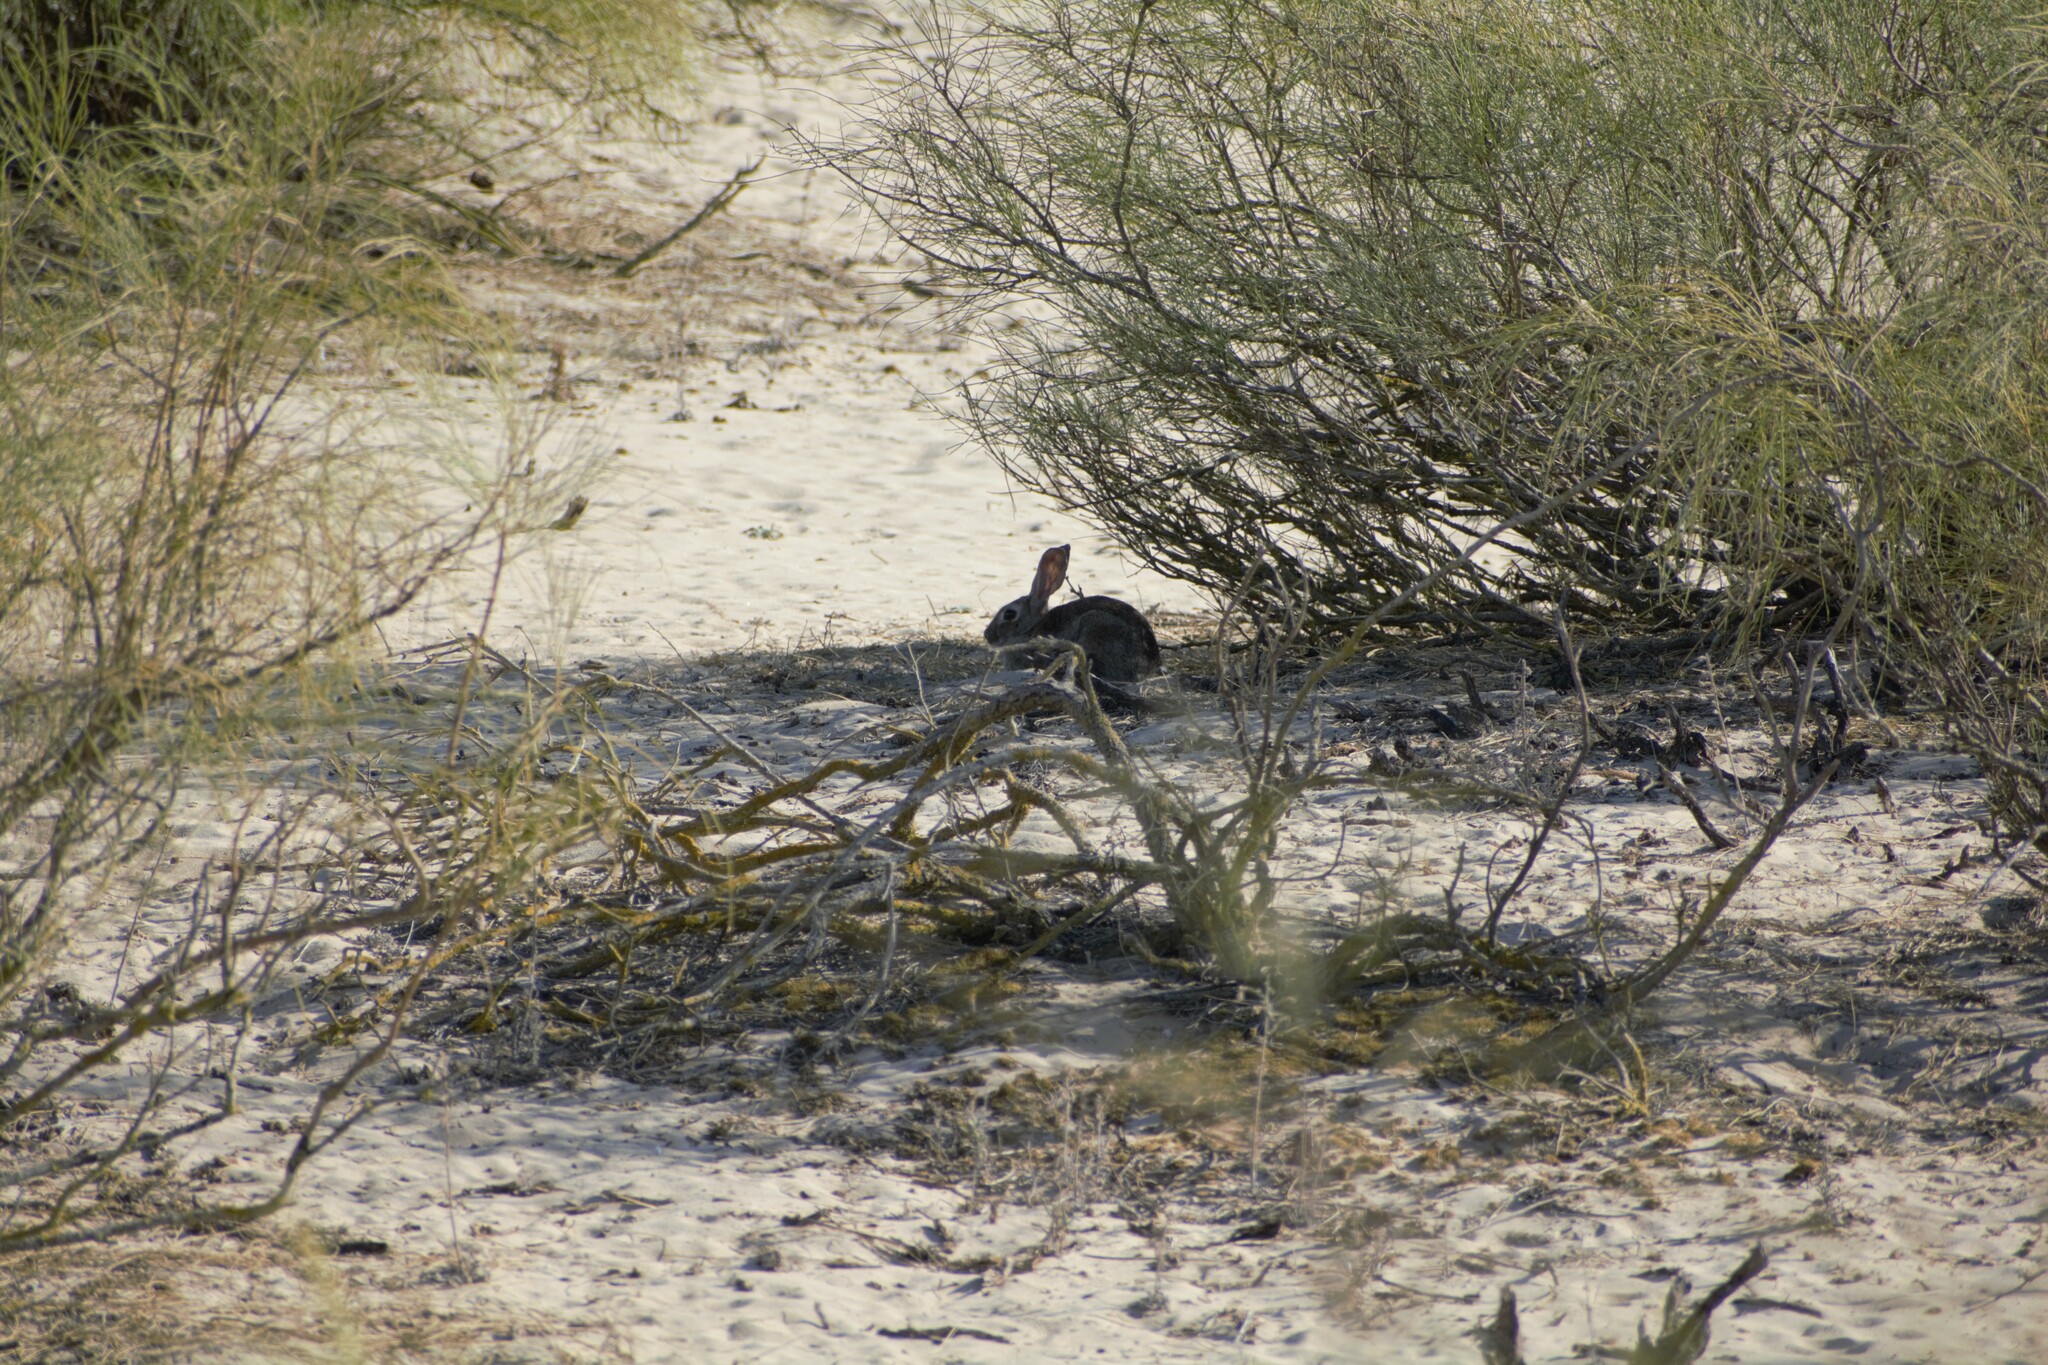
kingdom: Animalia
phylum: Chordata
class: Mammalia
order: Lagomorpha
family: Leporidae
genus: Oryctolagus
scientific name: Oryctolagus cuniculus
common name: European rabbit
